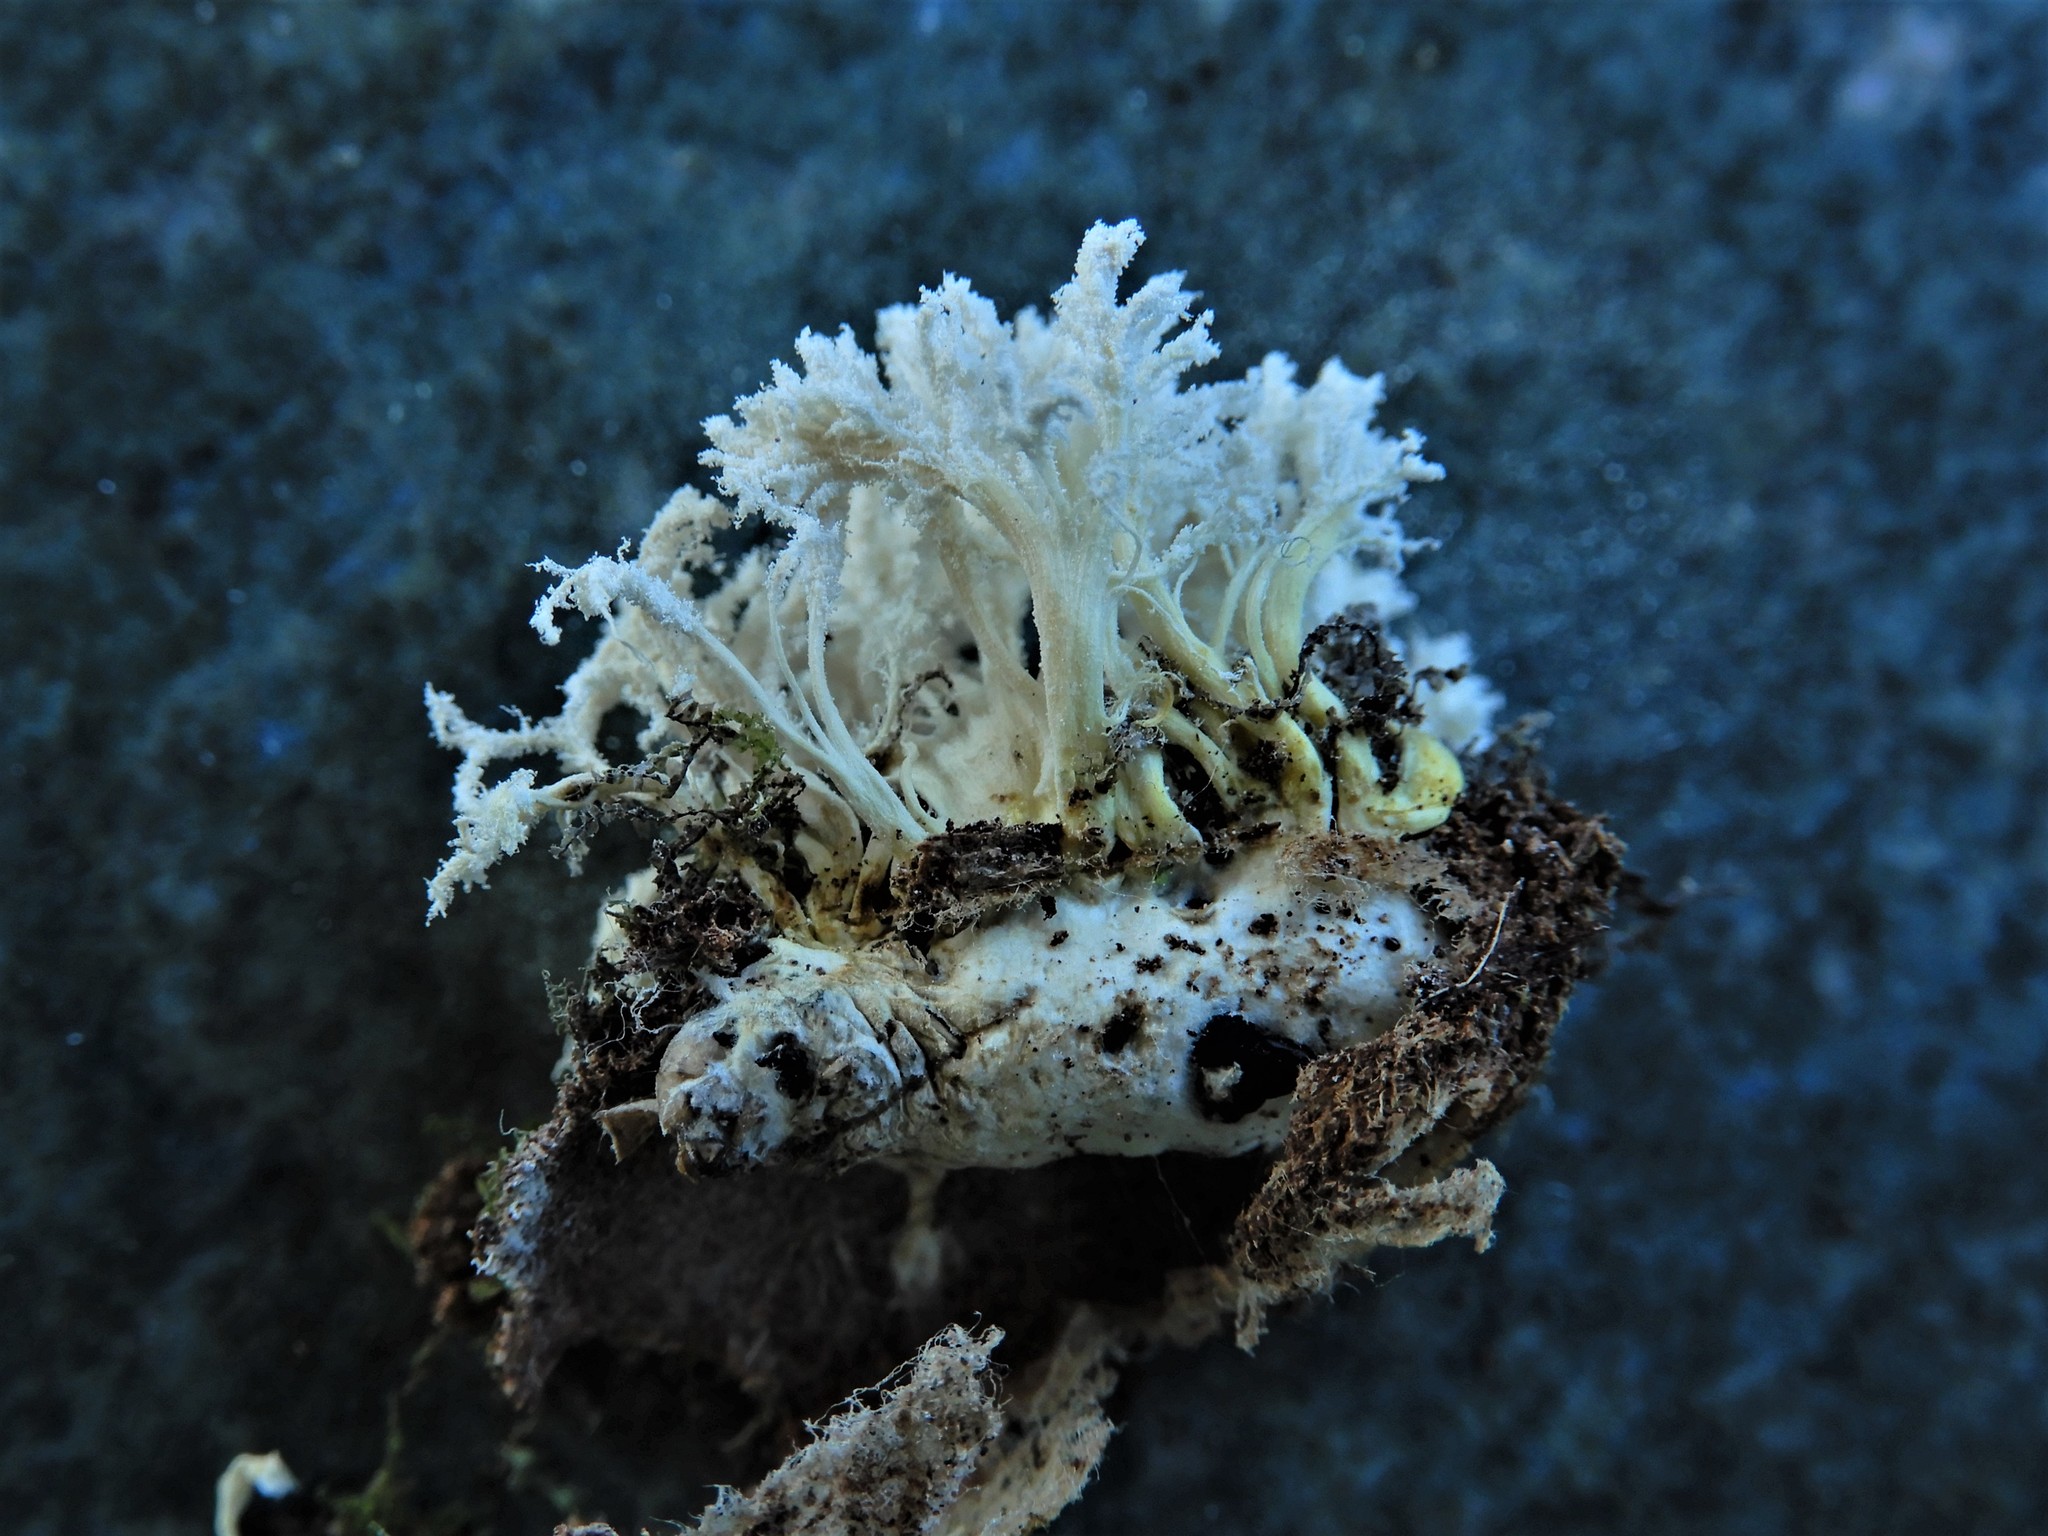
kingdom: Fungi
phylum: Ascomycota
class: Sordariomycetes
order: Hypocreales
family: Cordycipitaceae
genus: Cordyceps
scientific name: Cordyceps tenuipes
